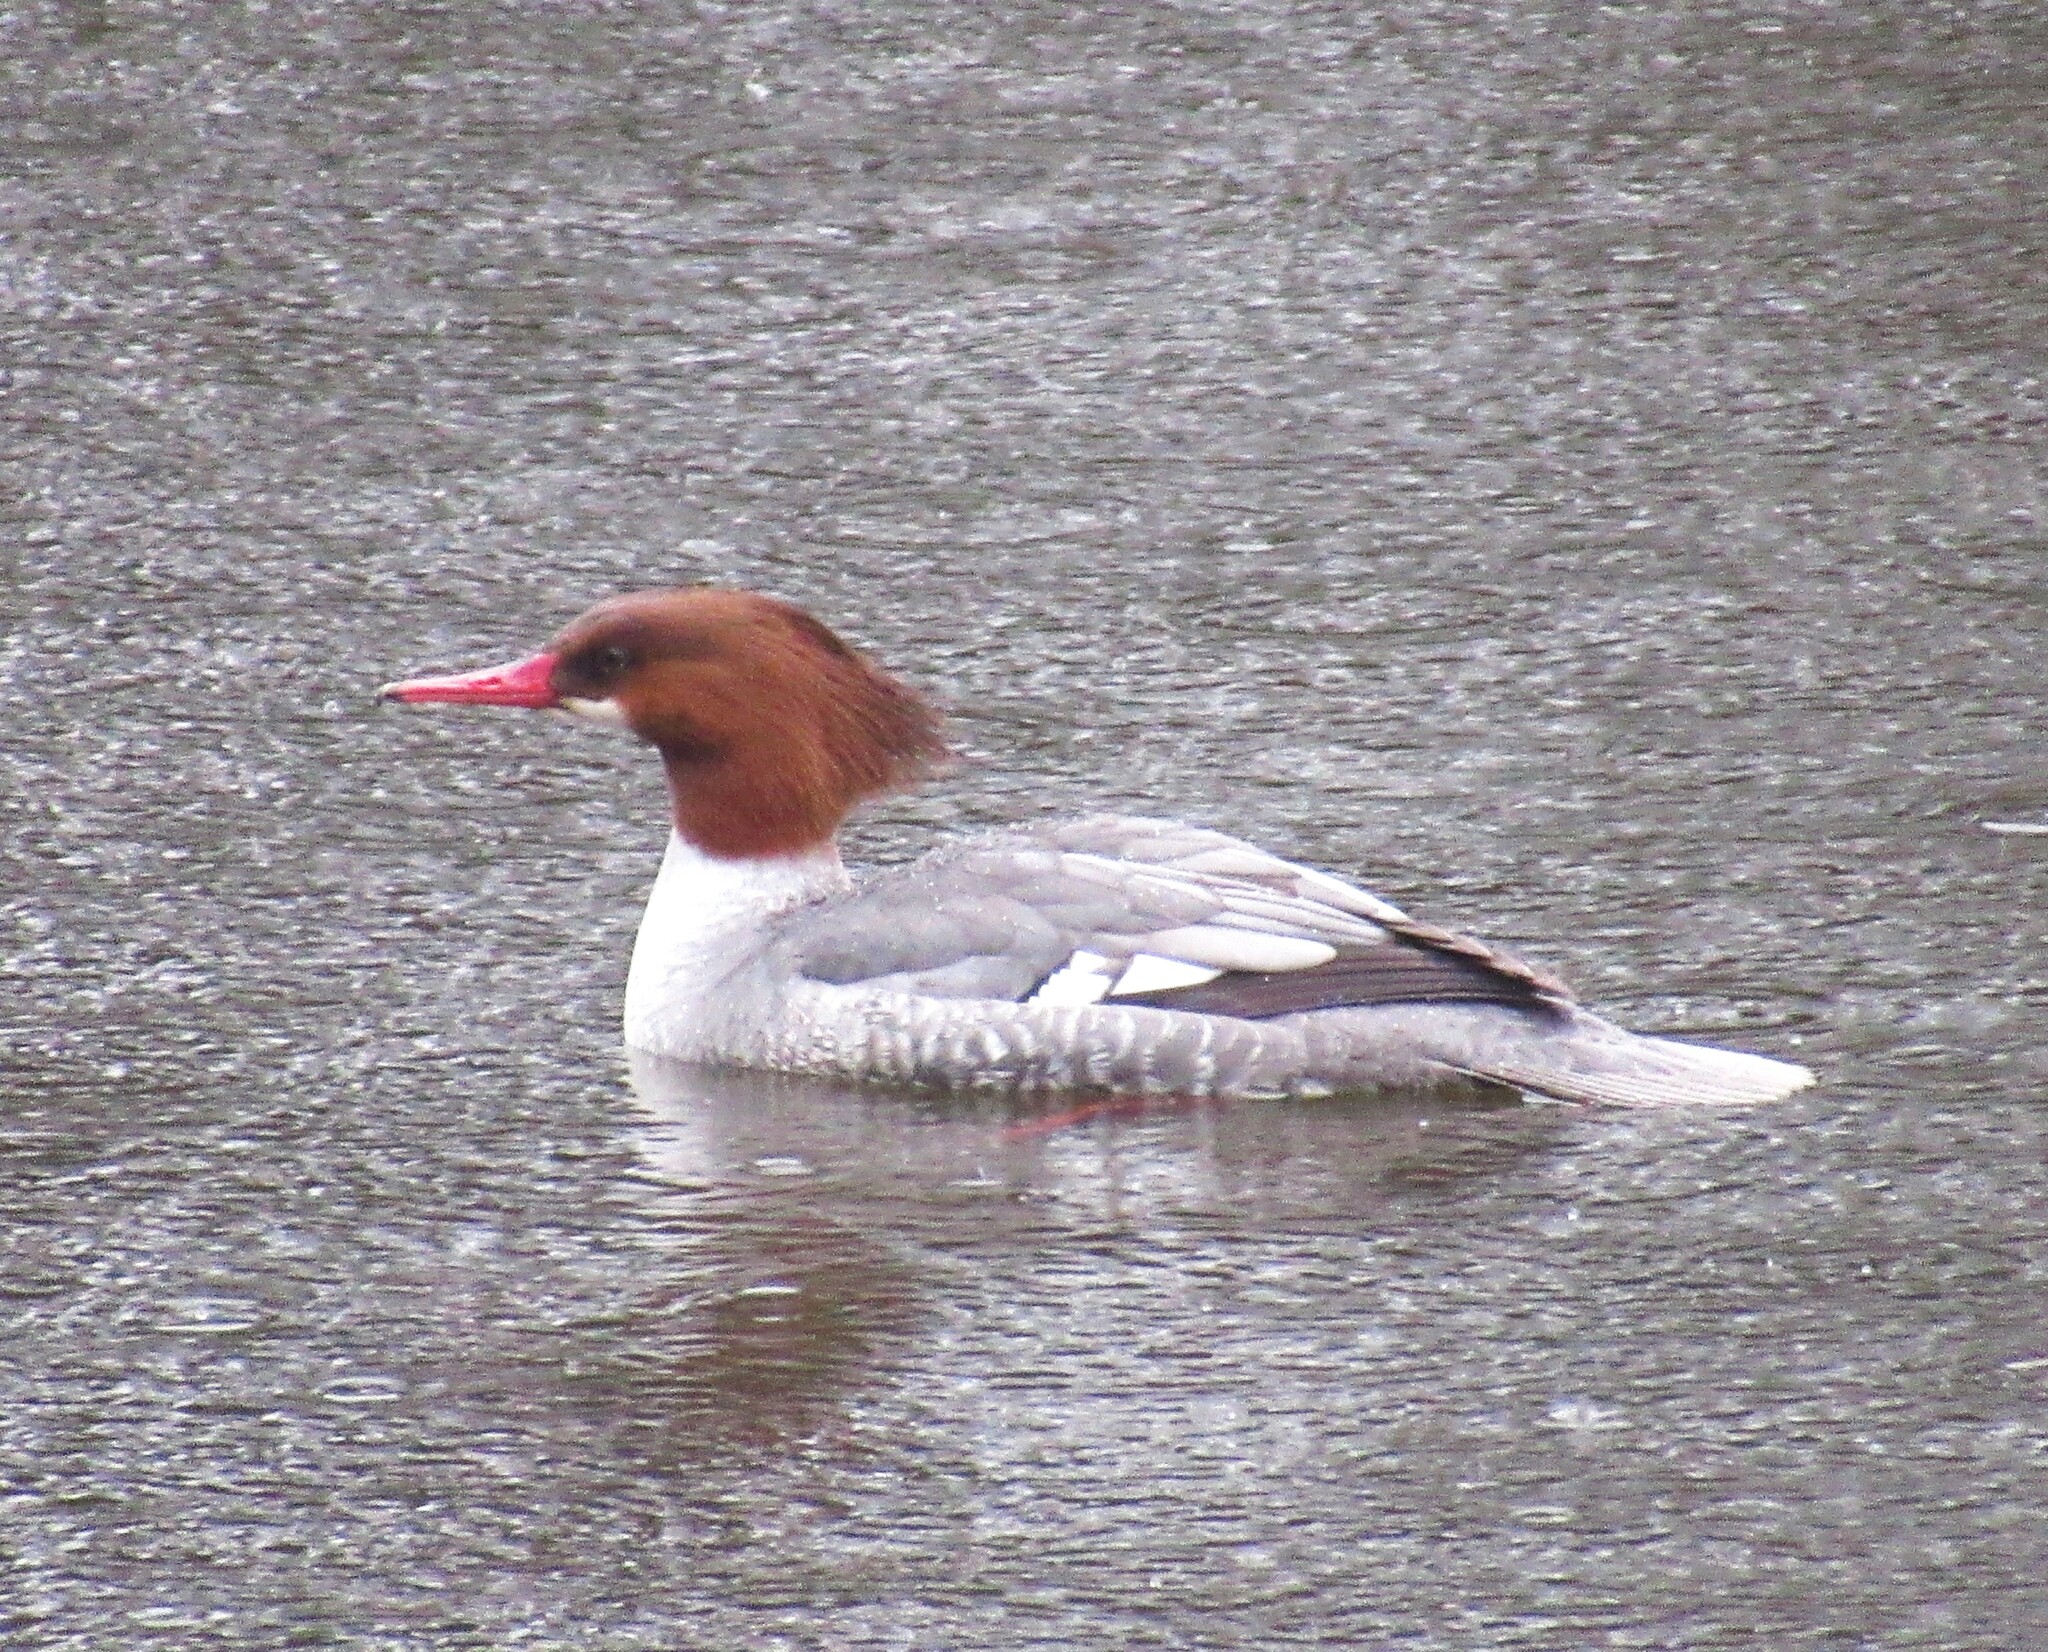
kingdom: Animalia
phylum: Chordata
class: Aves
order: Anseriformes
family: Anatidae
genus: Mergus
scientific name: Mergus merganser
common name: Common merganser
